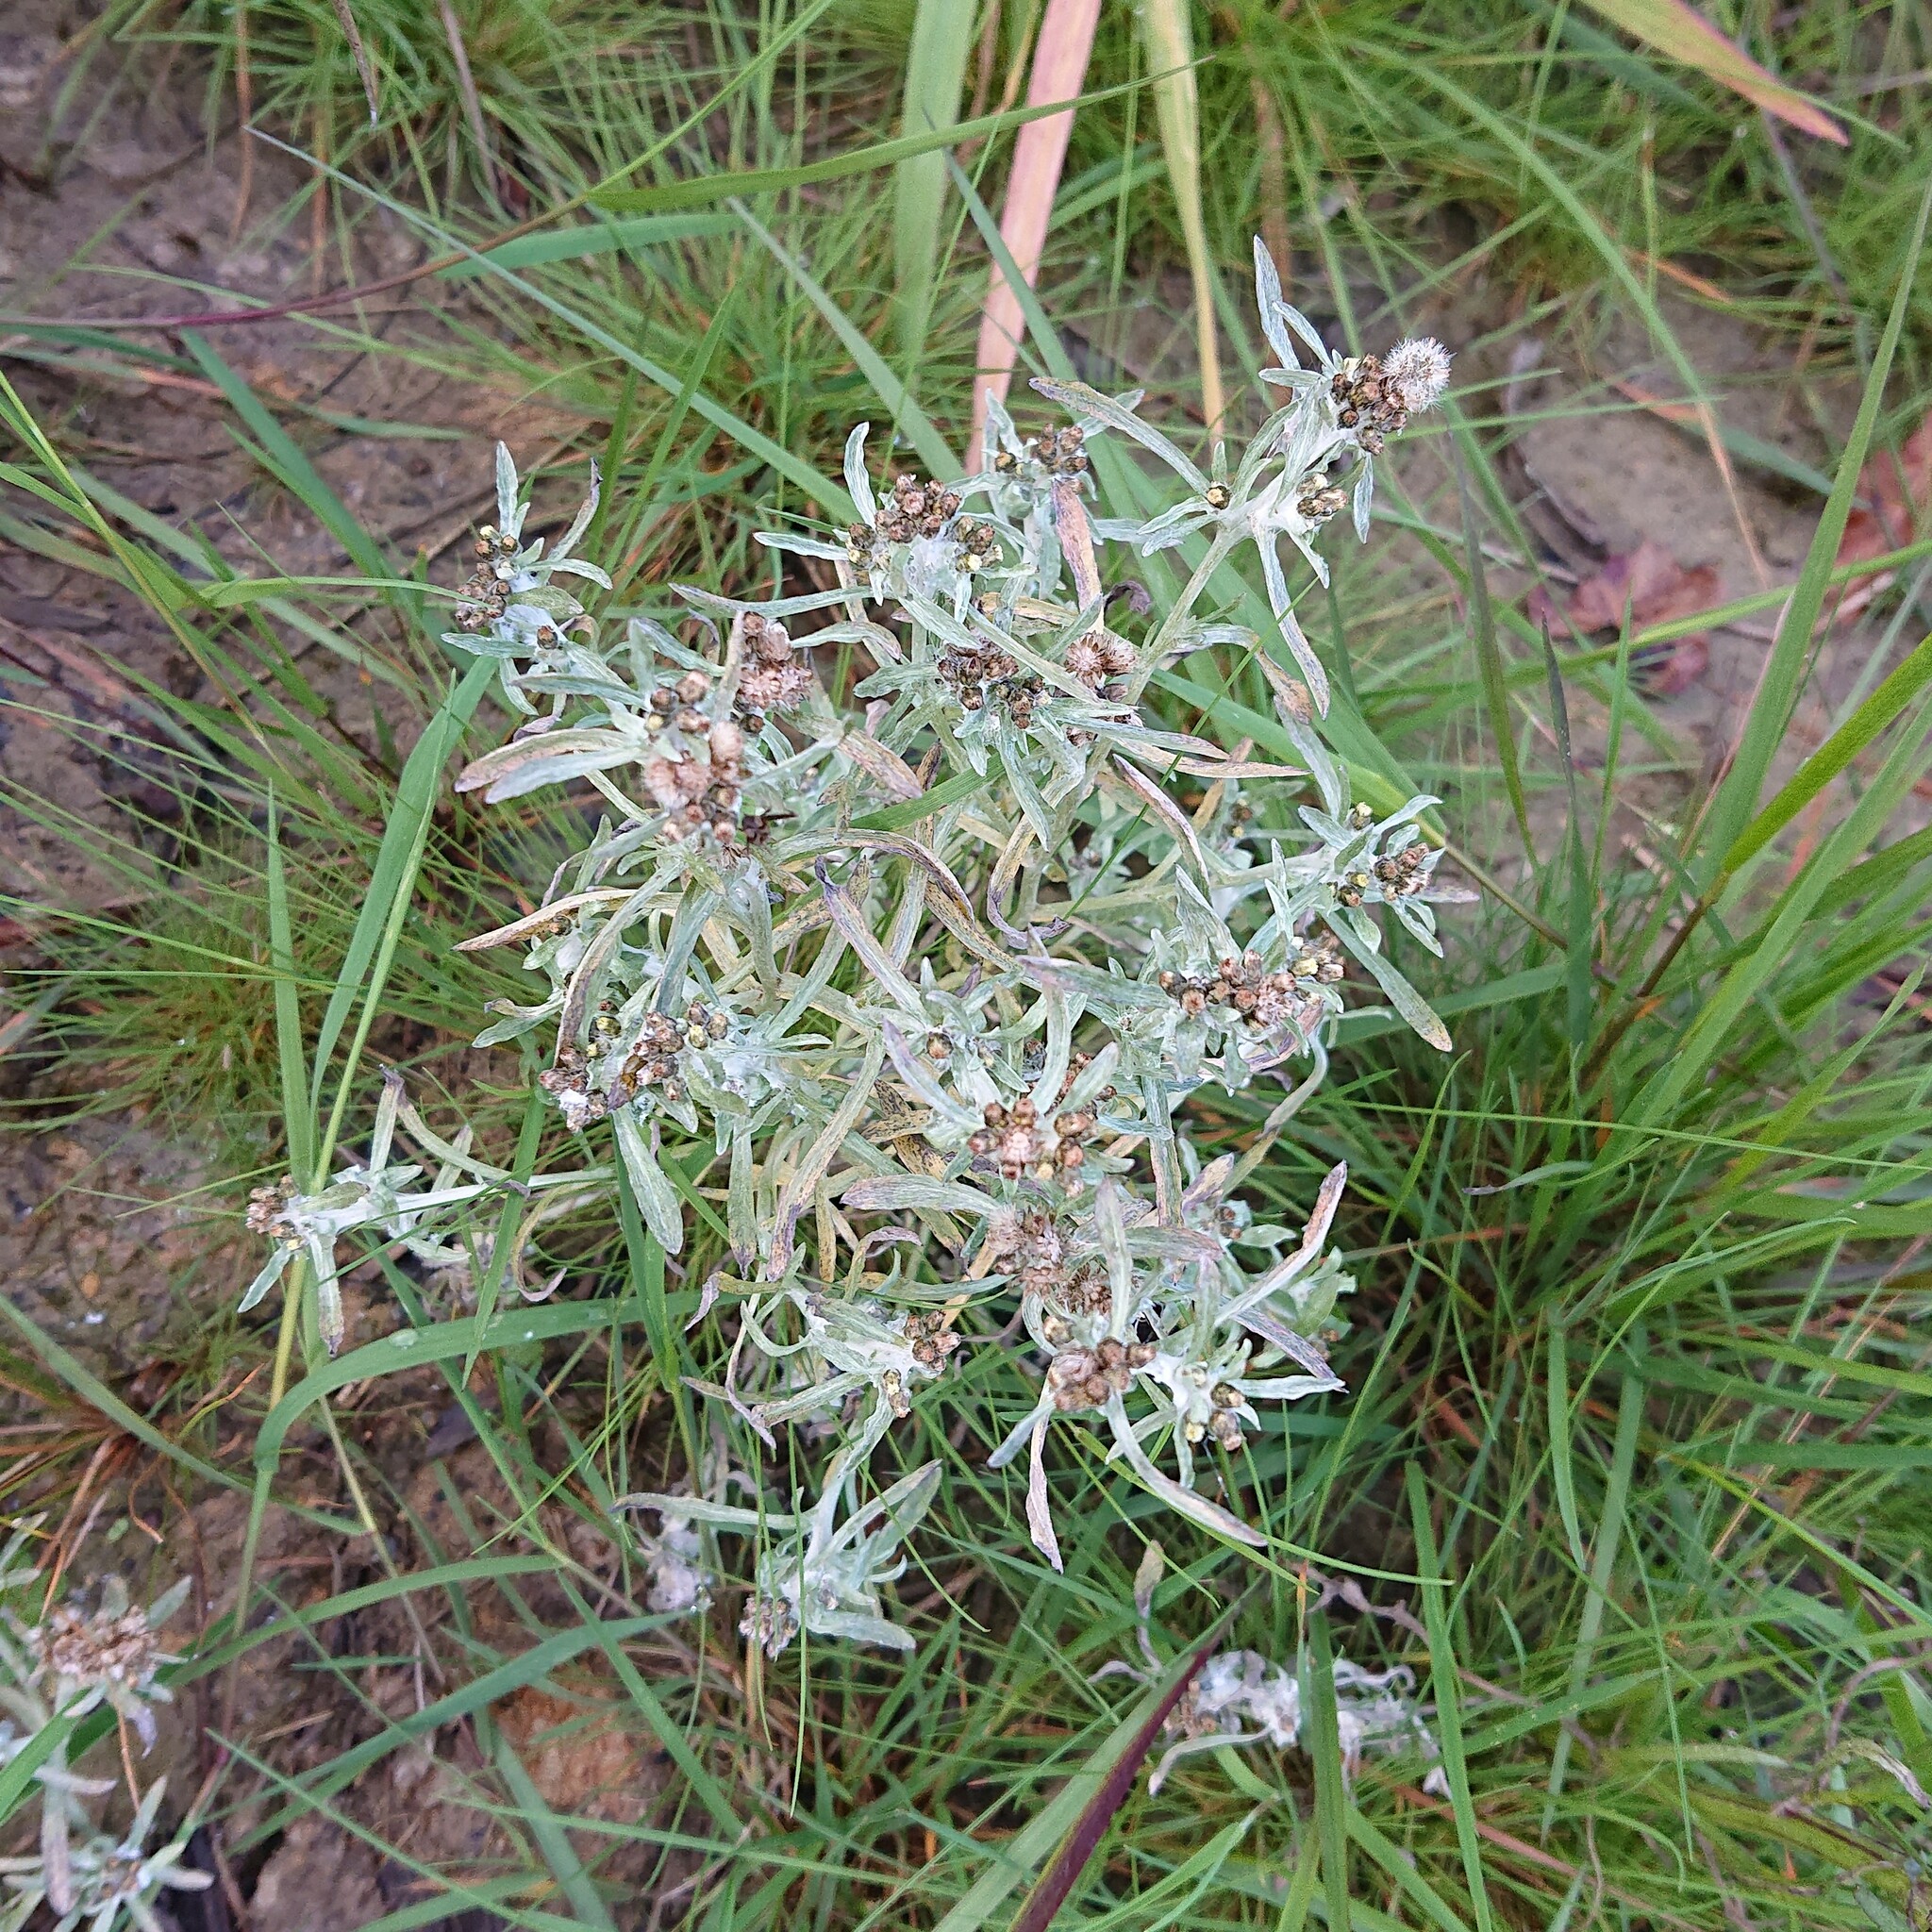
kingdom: Plantae
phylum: Tracheophyta
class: Magnoliopsida
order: Asterales
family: Asteraceae
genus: Gnaphalium
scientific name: Gnaphalium uliginosum
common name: Marsh cudweed
